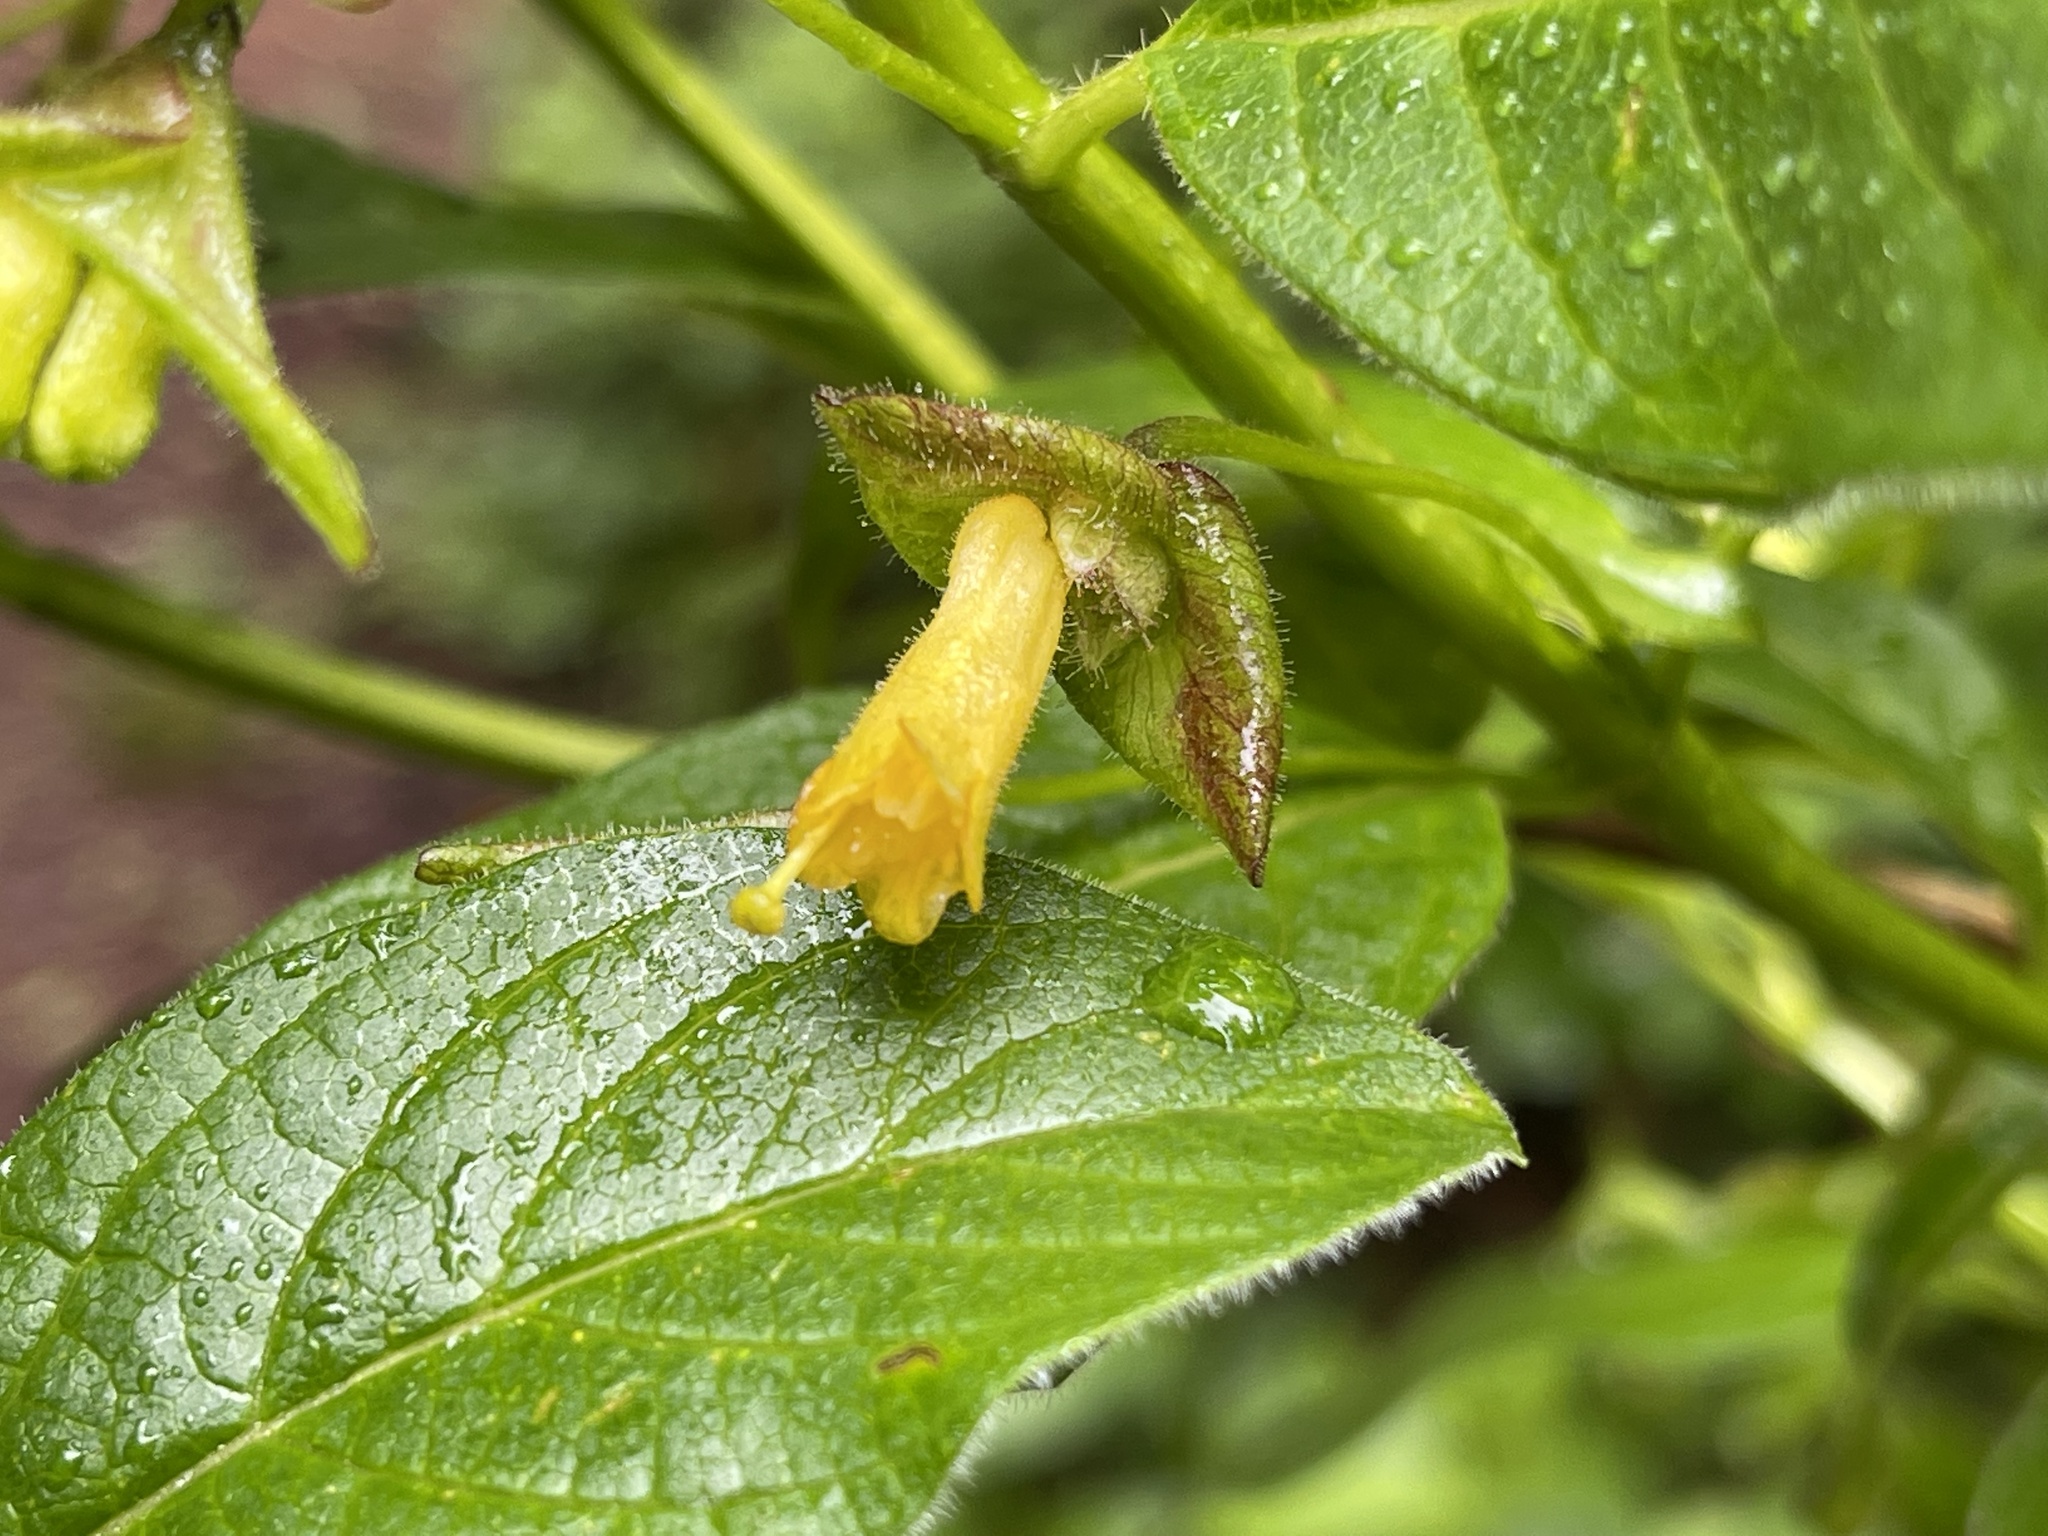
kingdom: Plantae
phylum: Tracheophyta
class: Magnoliopsida
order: Dipsacales
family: Caprifoliaceae
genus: Lonicera
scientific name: Lonicera involucrata
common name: Californian honeysuckle
